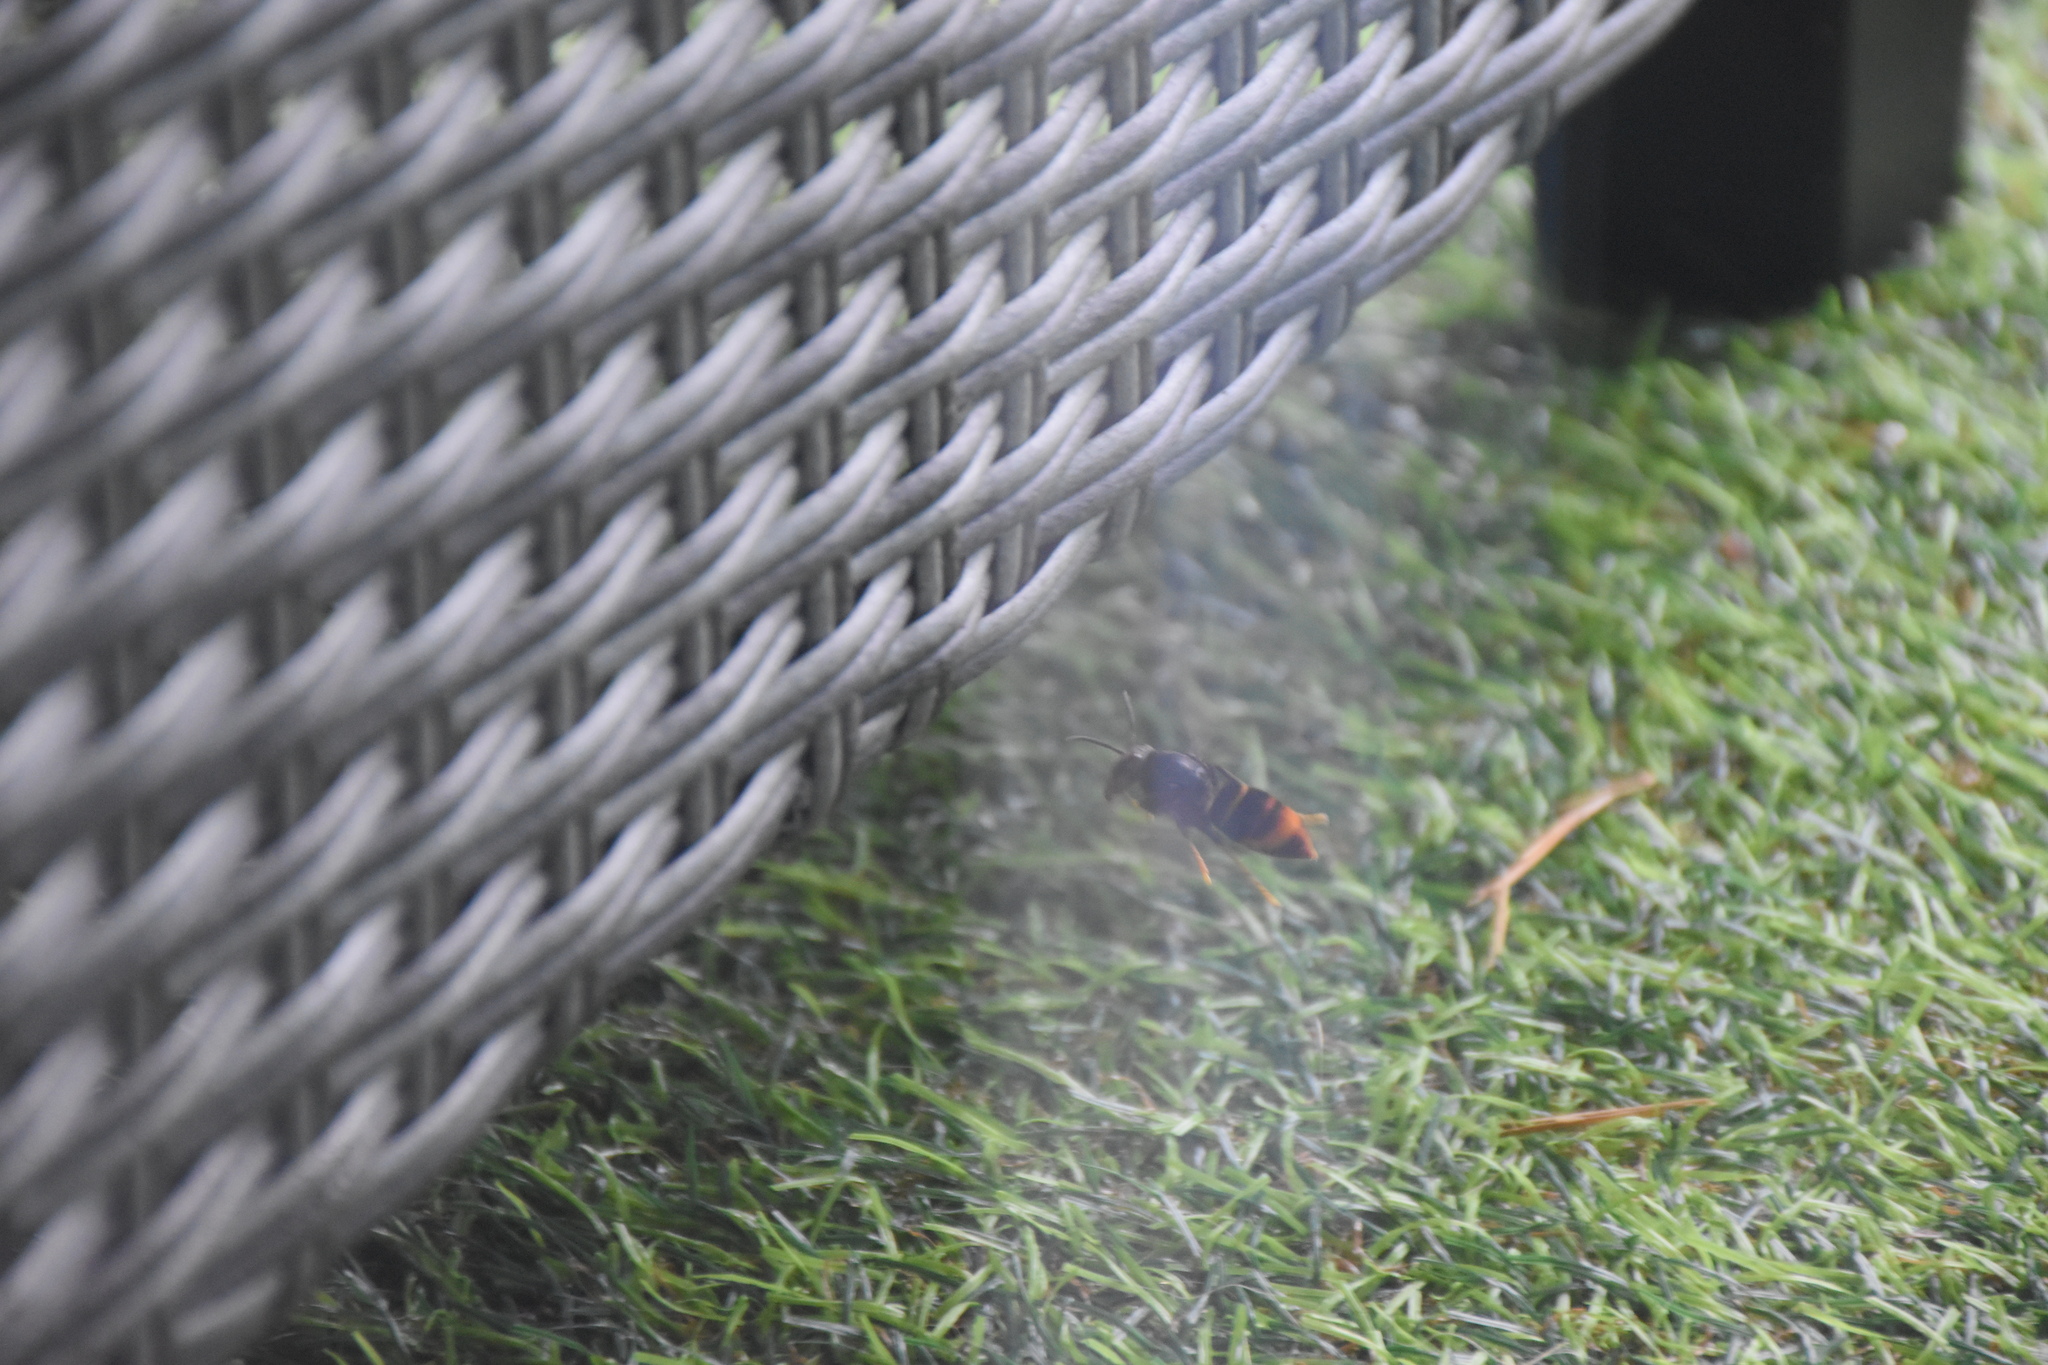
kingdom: Animalia
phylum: Arthropoda
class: Insecta
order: Hymenoptera
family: Vespidae
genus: Vespa
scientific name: Vespa velutina
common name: Asian hornet
